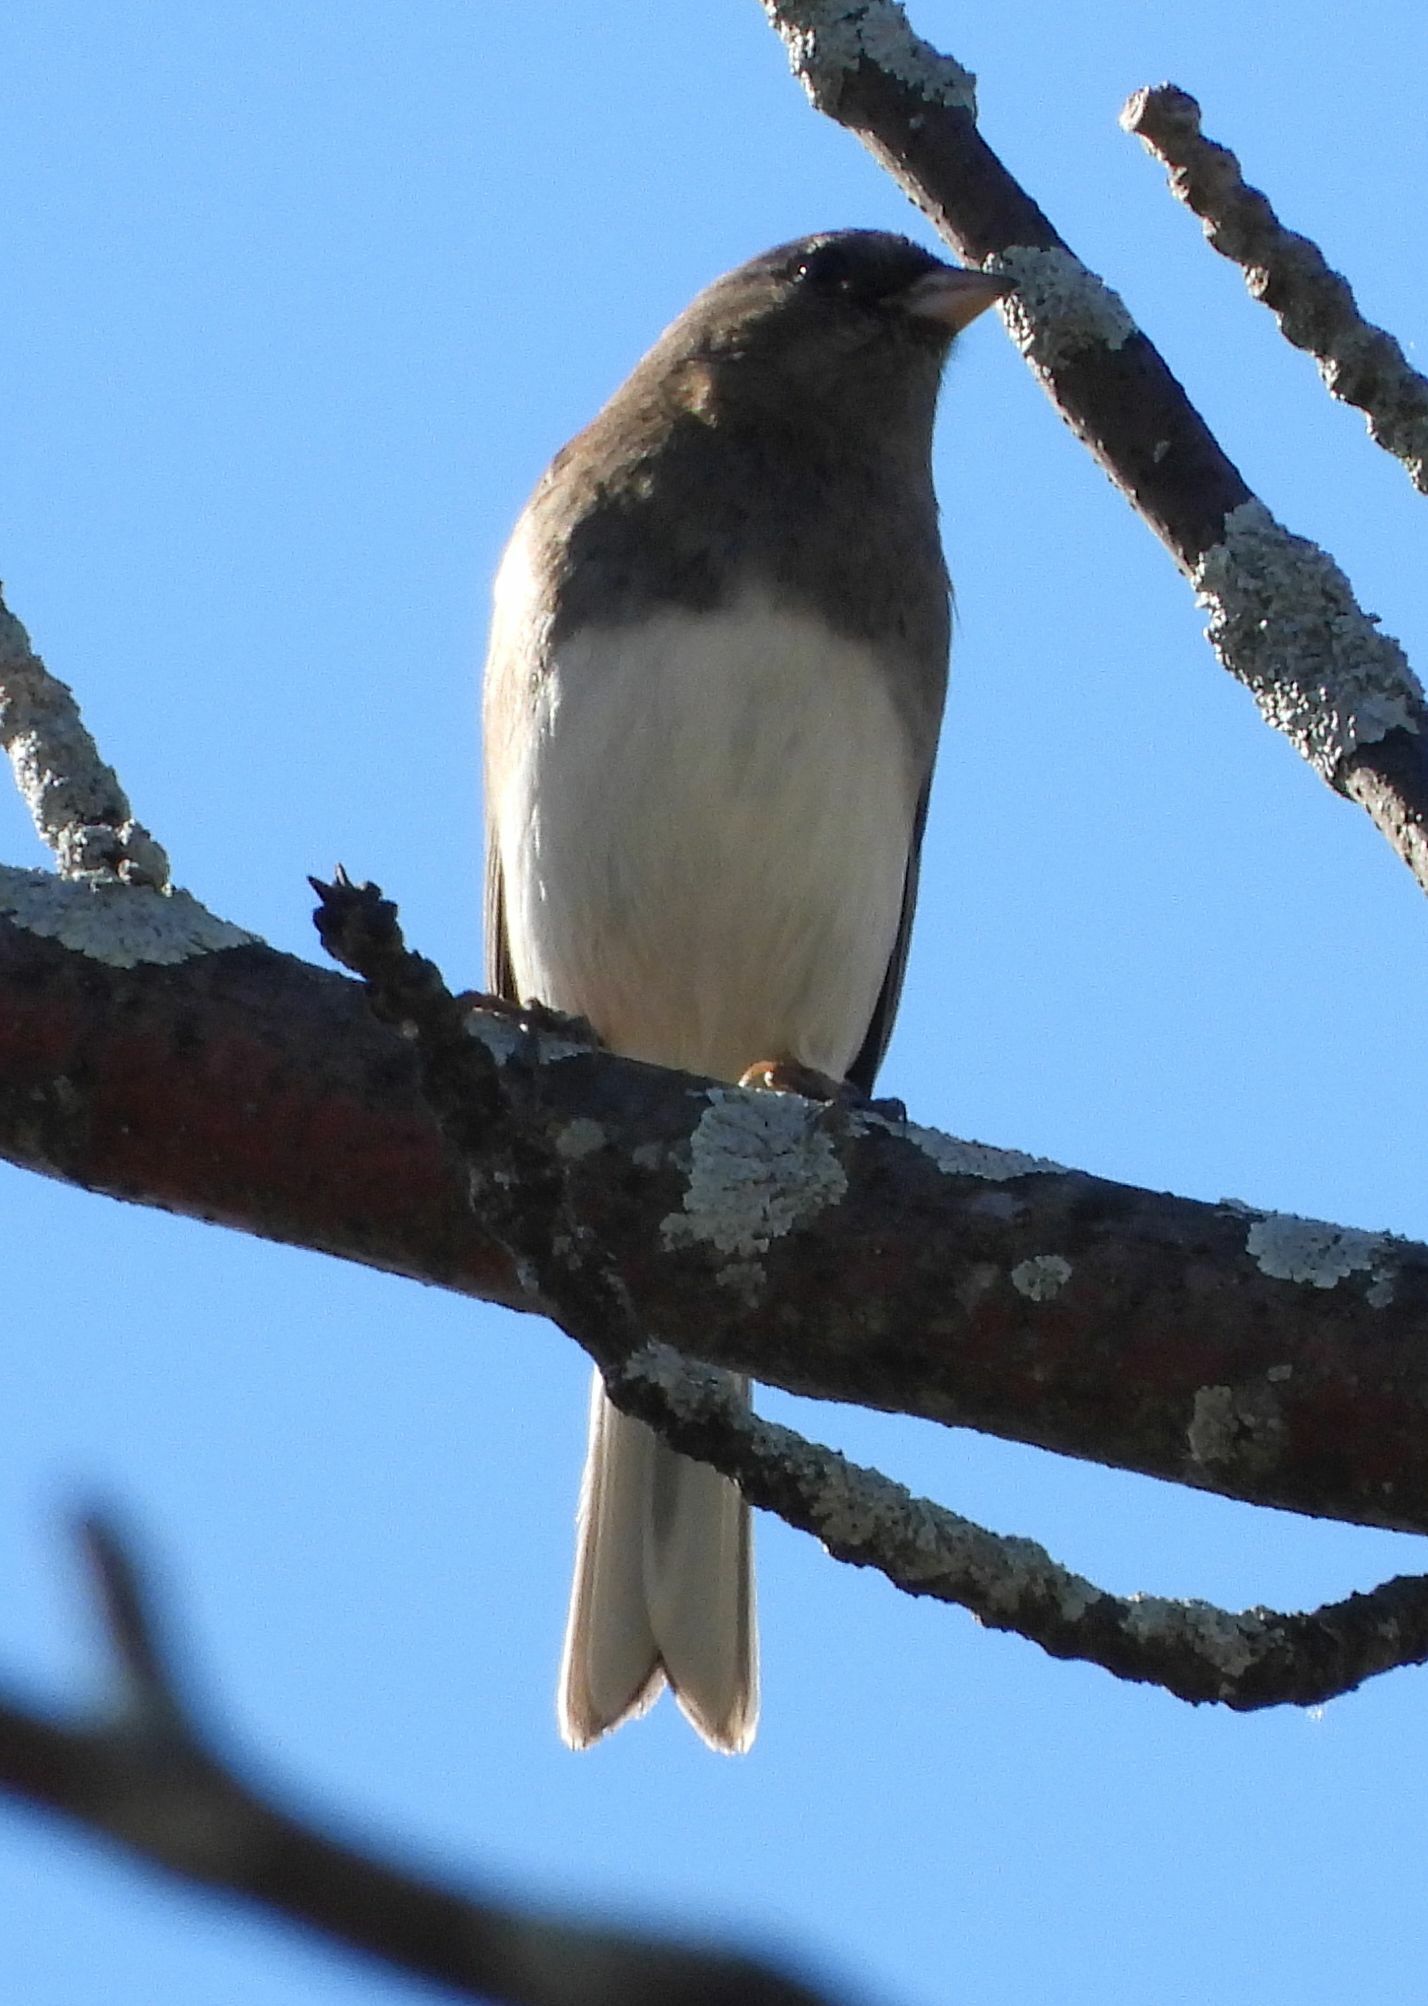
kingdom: Animalia
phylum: Chordata
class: Aves
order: Passeriformes
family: Passerellidae
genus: Junco
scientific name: Junco hyemalis
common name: Dark-eyed junco
